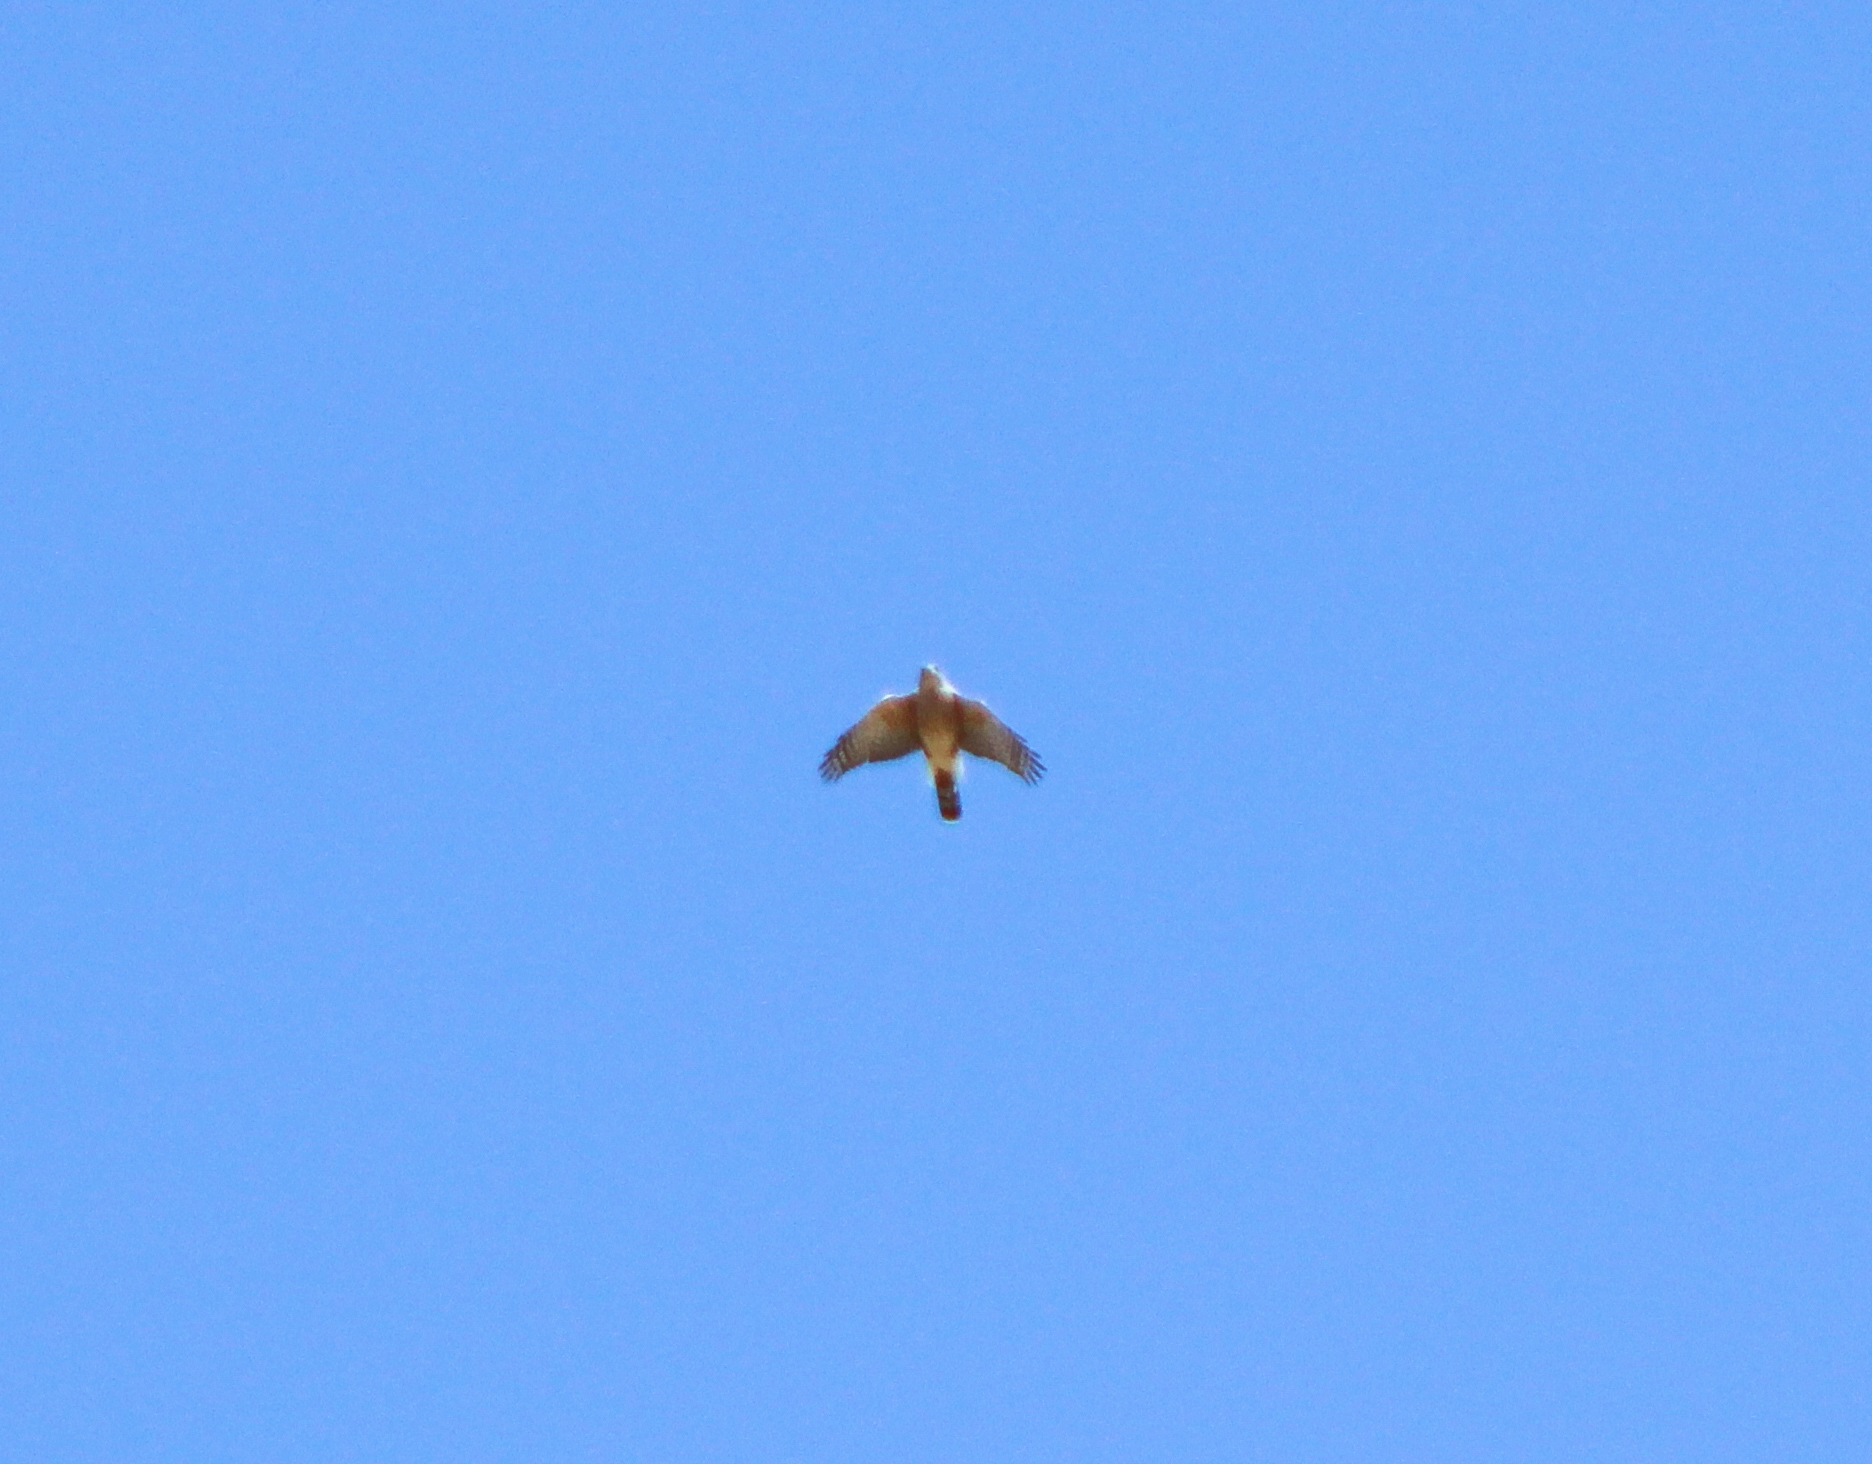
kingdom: Animalia
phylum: Chordata
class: Aves
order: Accipitriformes
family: Accipitridae
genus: Buteo
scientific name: Buteo lineatus
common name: Red-shouldered hawk
